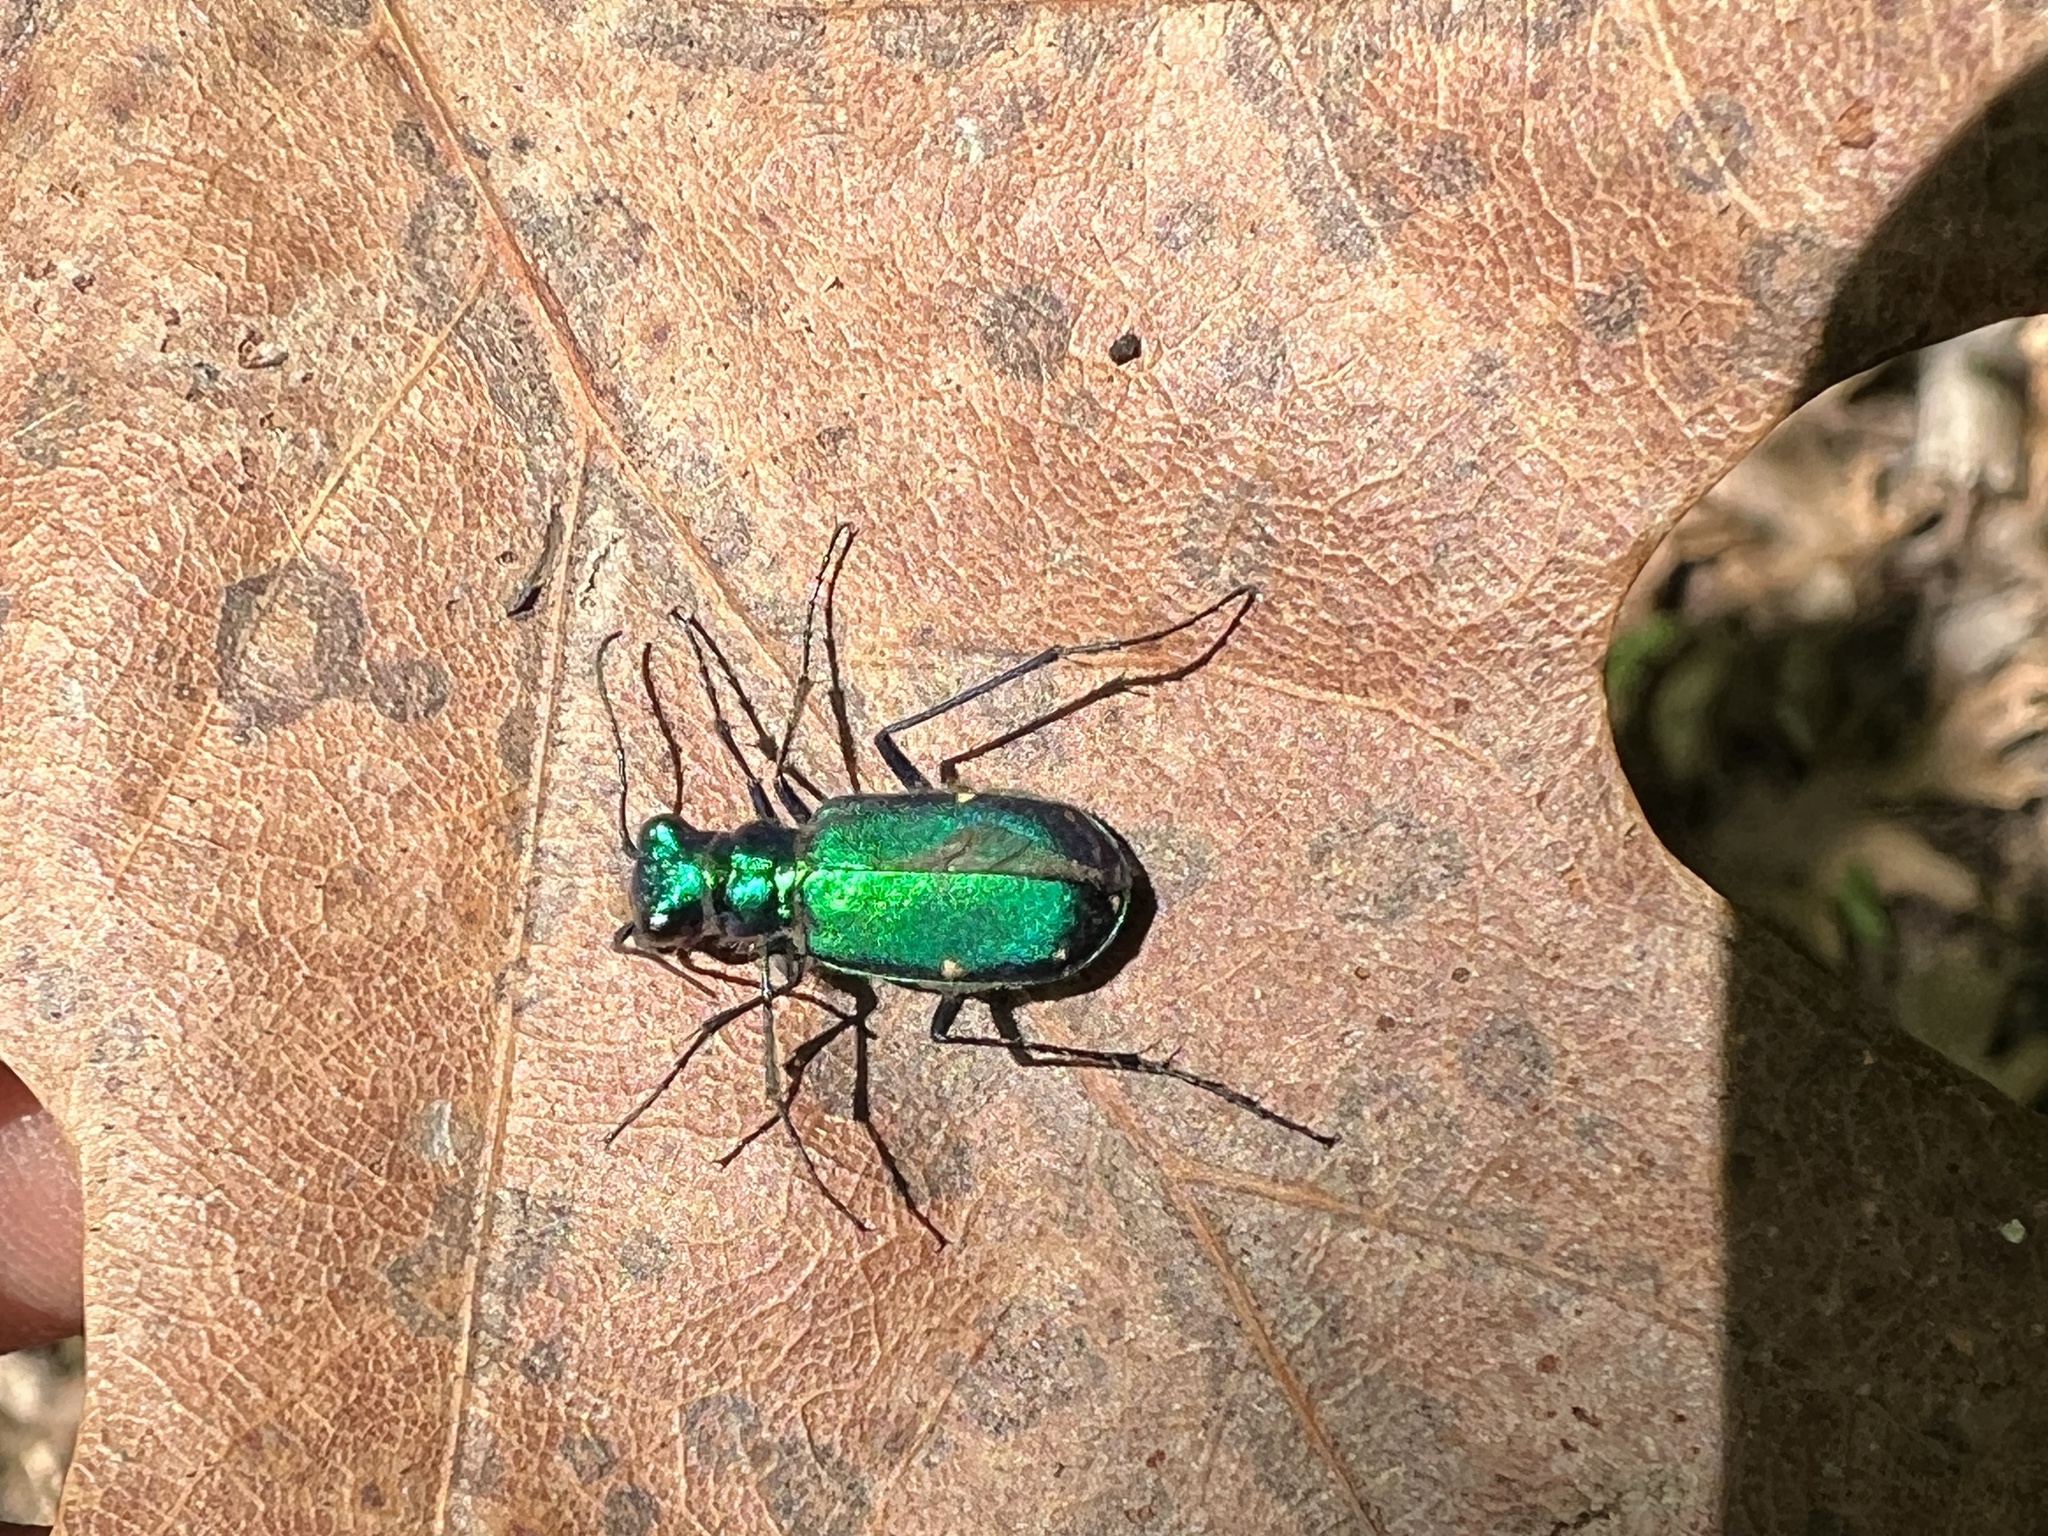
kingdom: Animalia
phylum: Arthropoda
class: Insecta
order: Coleoptera
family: Carabidae
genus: Cicindela
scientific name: Cicindela sexguttata
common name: Six-spotted tiger beetle
